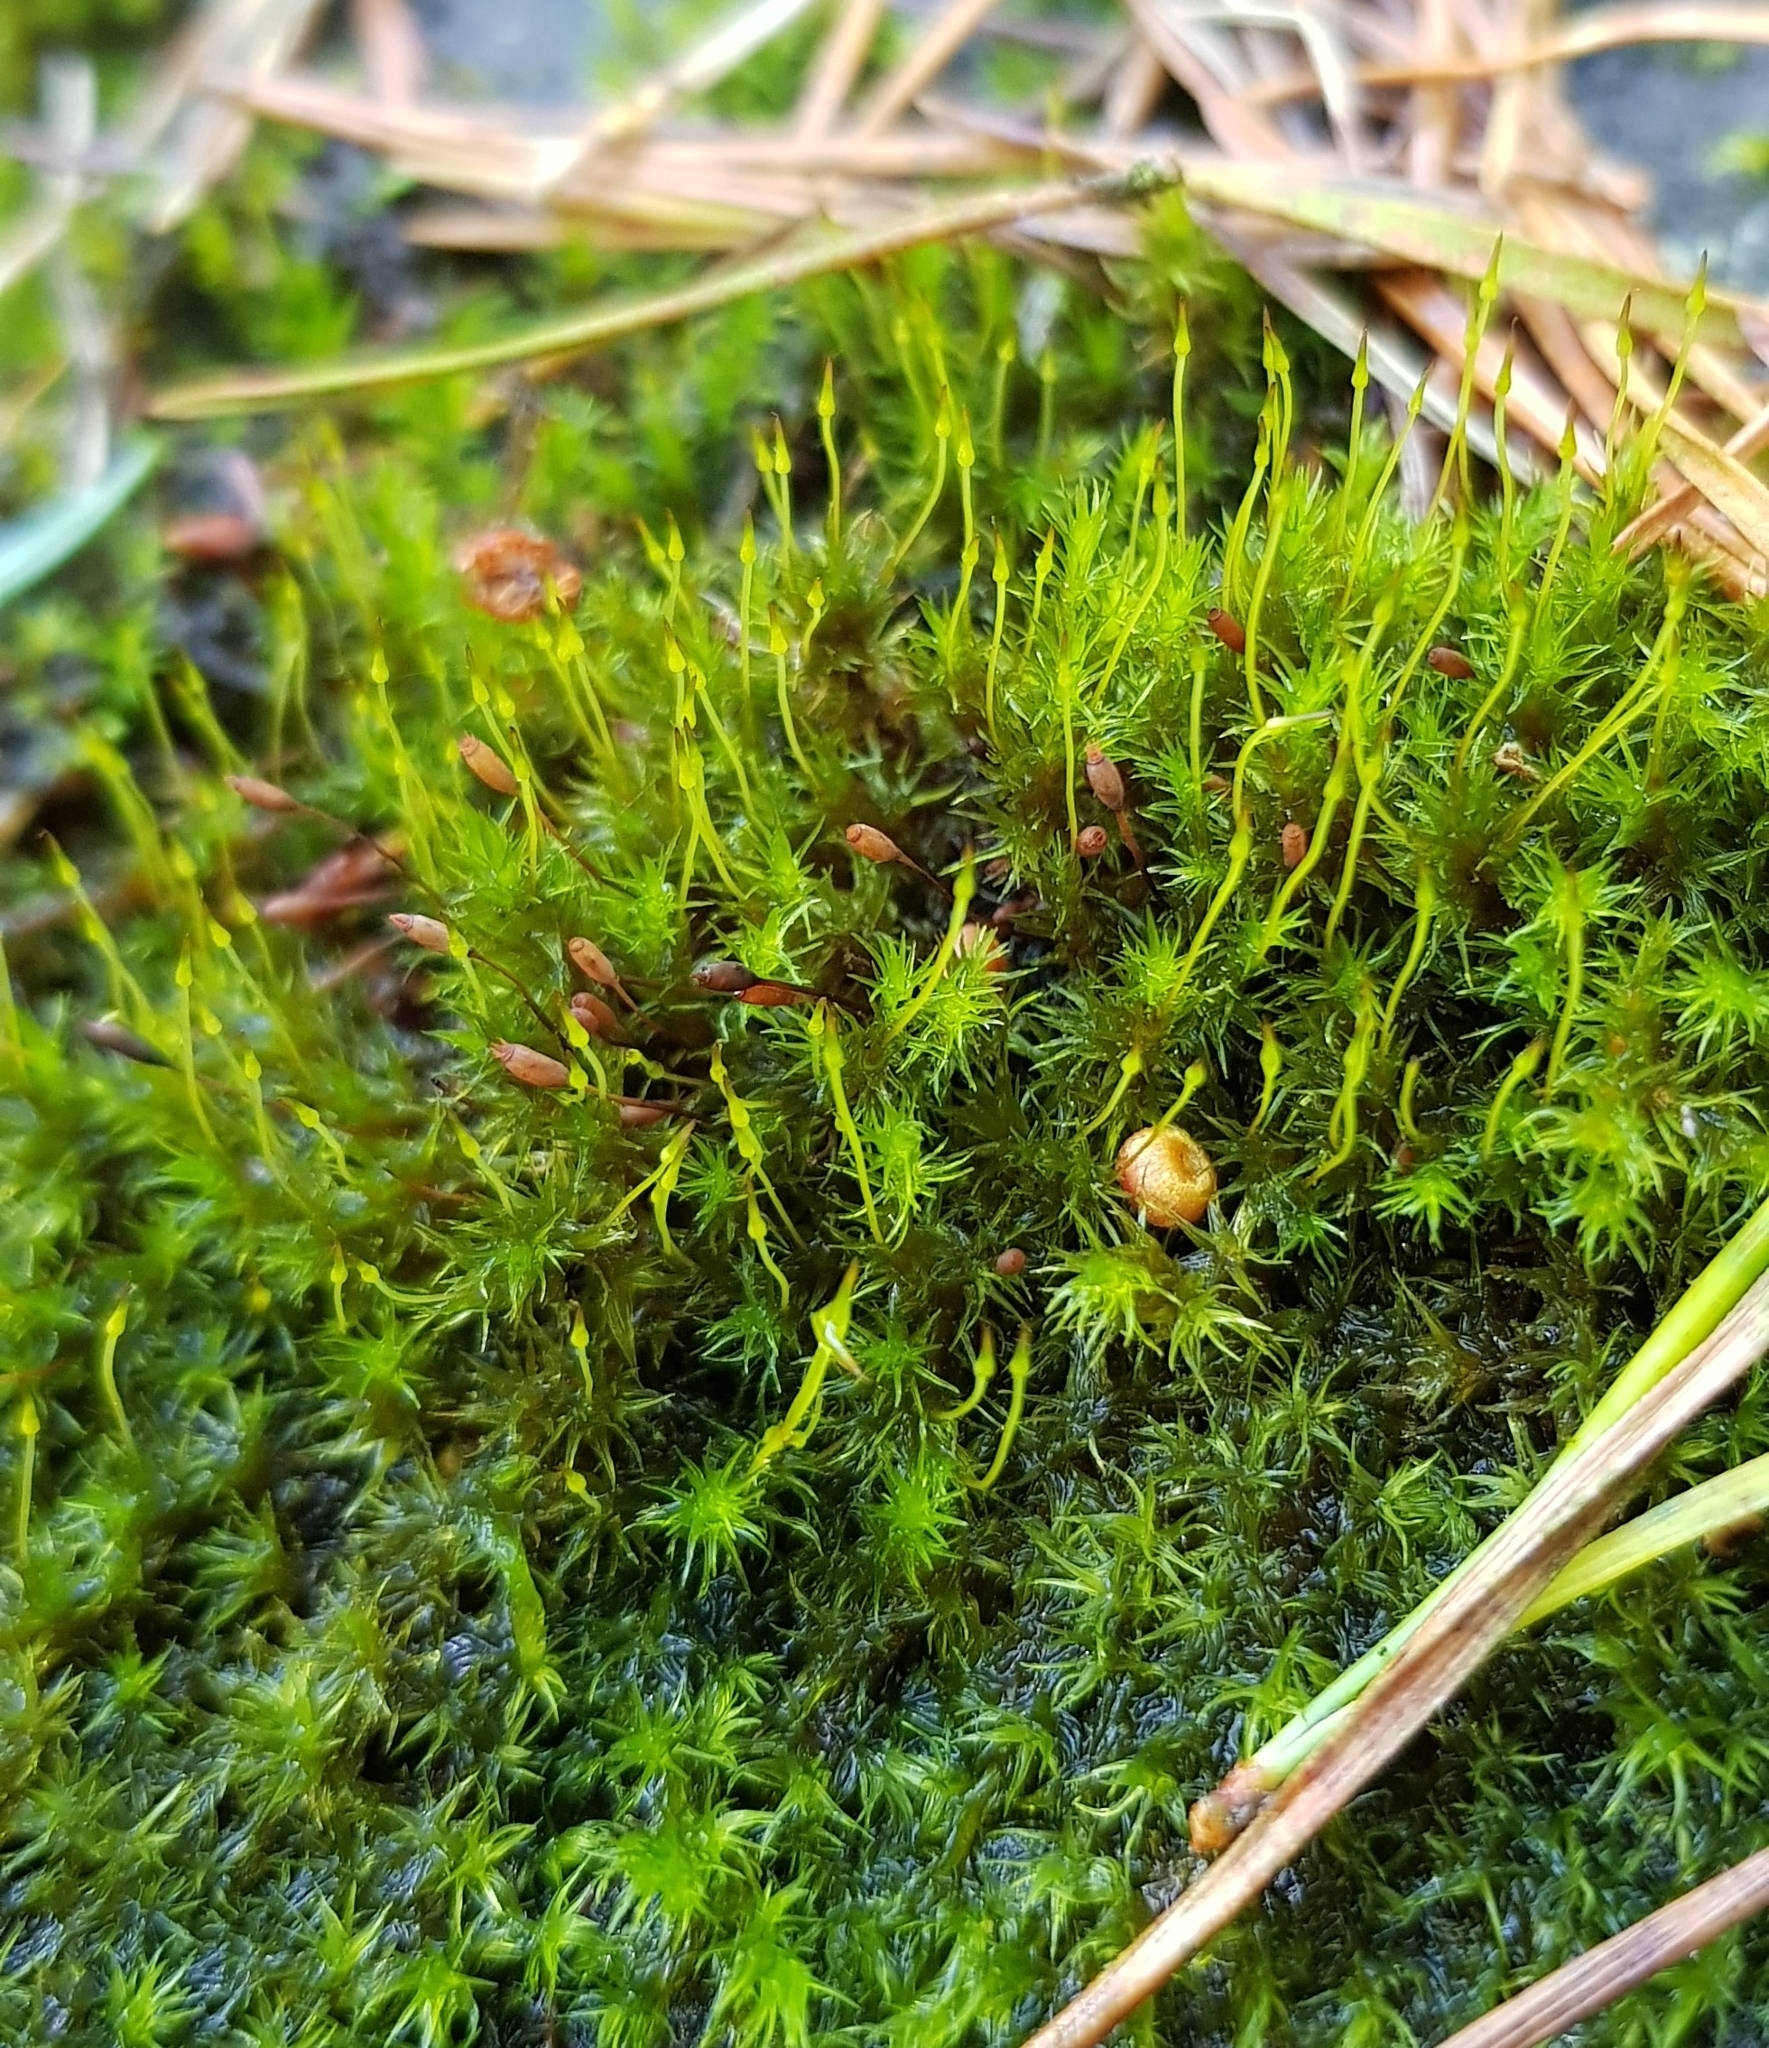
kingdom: Plantae
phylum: Bryophyta
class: Bryopsida
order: Grimmiales
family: Grimmiaceae
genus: Dilutineuron
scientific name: Dilutineuron fasciculare
